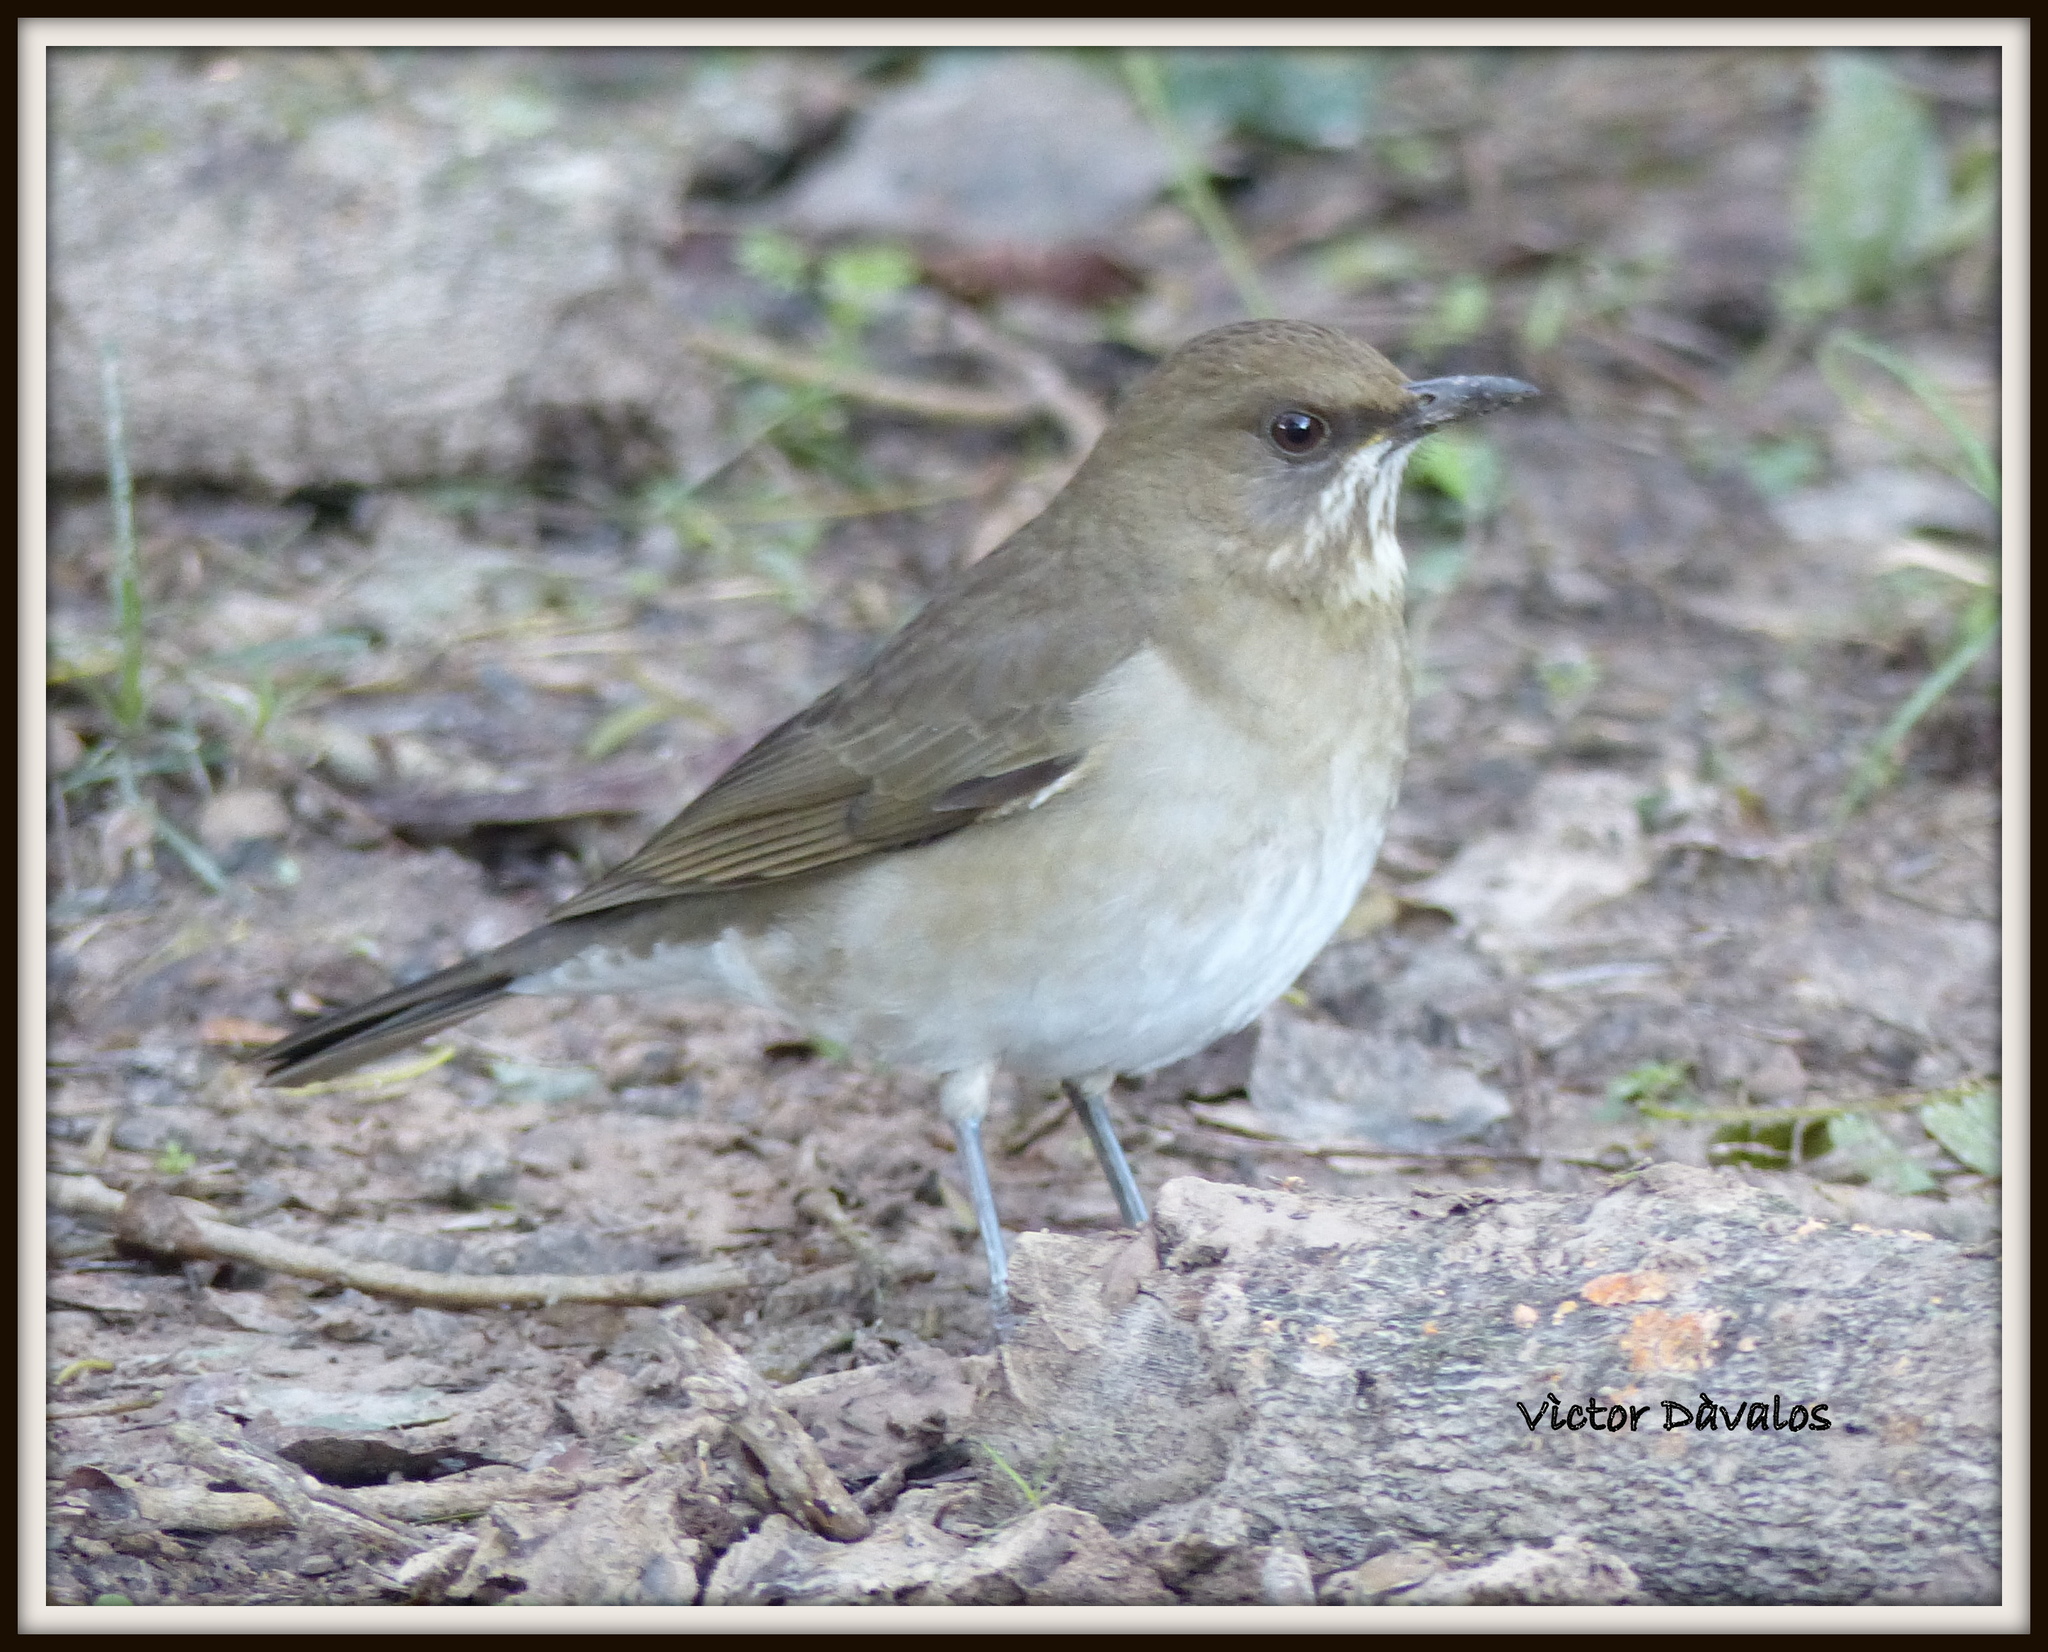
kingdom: Animalia
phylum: Chordata
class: Aves
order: Passeriformes
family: Turdidae
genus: Turdus
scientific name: Turdus amaurochalinus
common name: Creamy-bellied thrush
